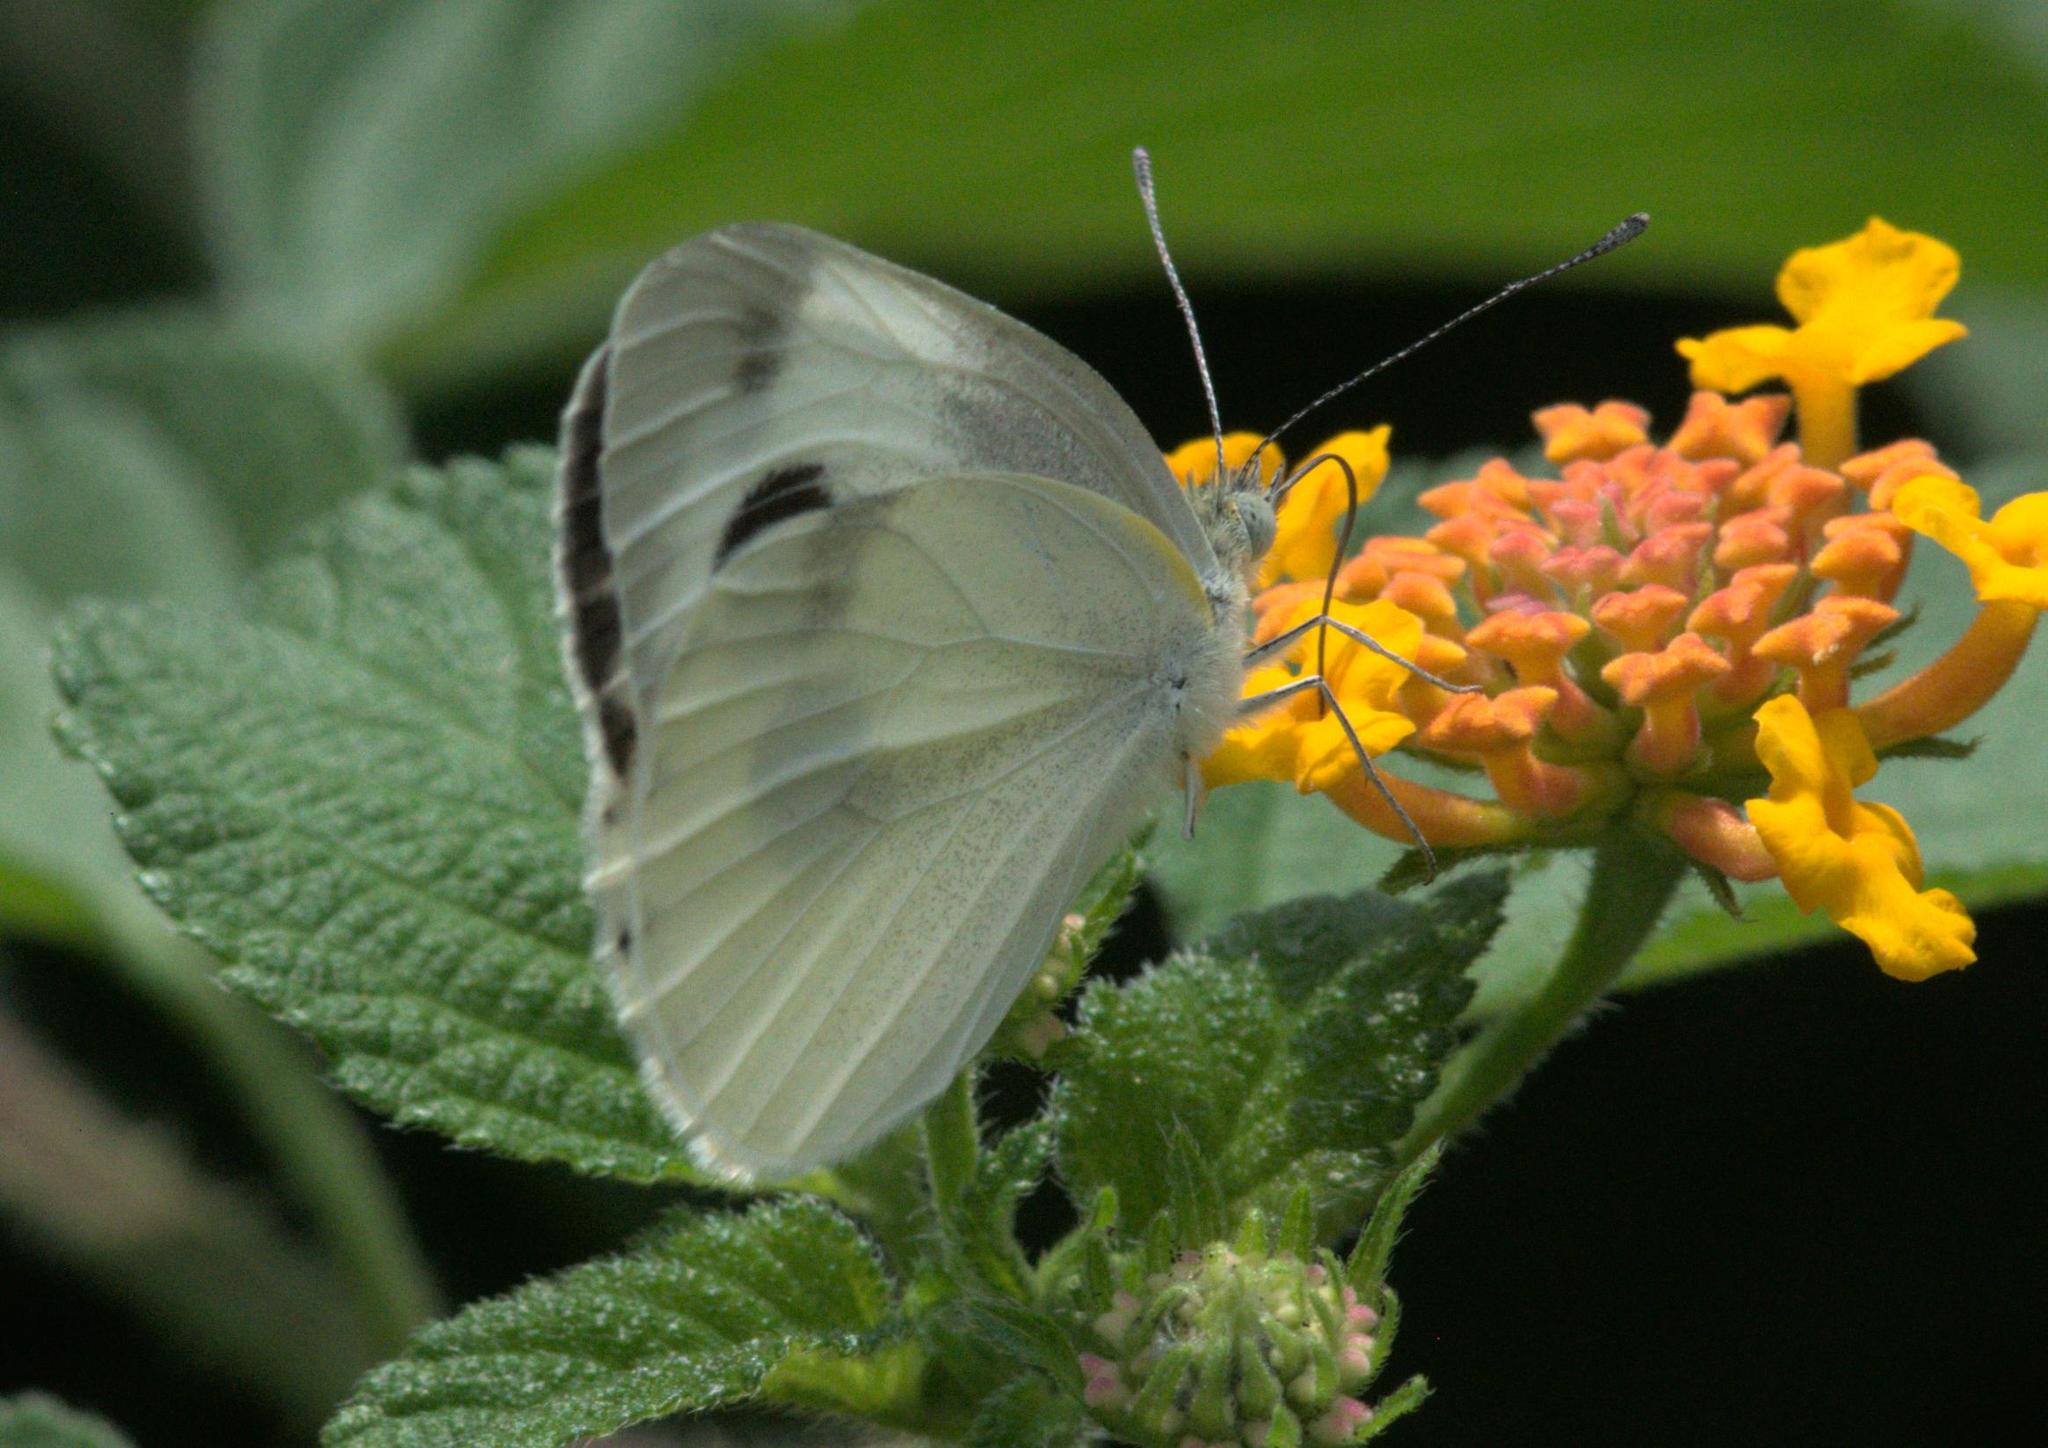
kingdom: Animalia
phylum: Arthropoda
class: Insecta
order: Lepidoptera
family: Pieridae
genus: Pieris
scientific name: Pieris canidia
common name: Indian cabbage white
